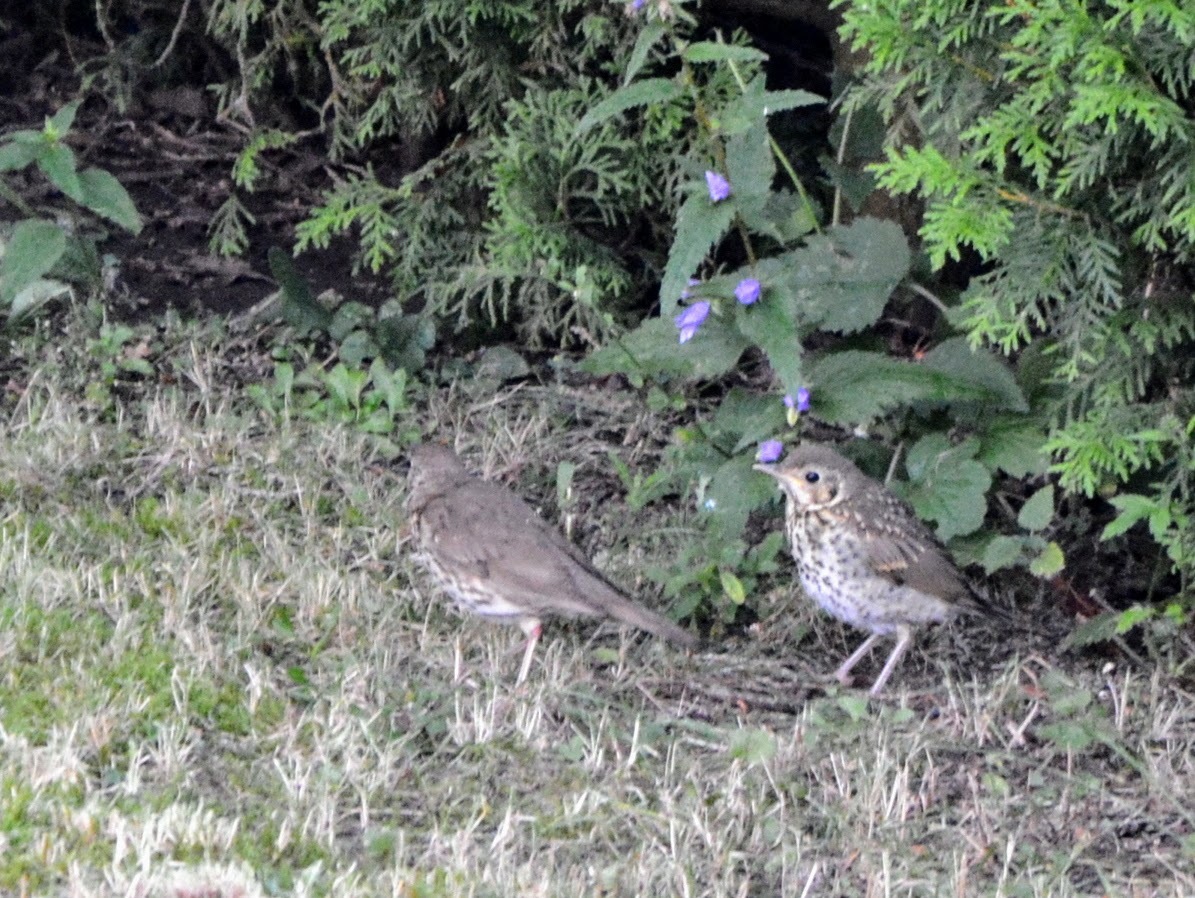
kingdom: Animalia
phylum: Chordata
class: Aves
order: Passeriformes
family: Turdidae
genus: Turdus
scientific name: Turdus philomelos
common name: Song thrush
